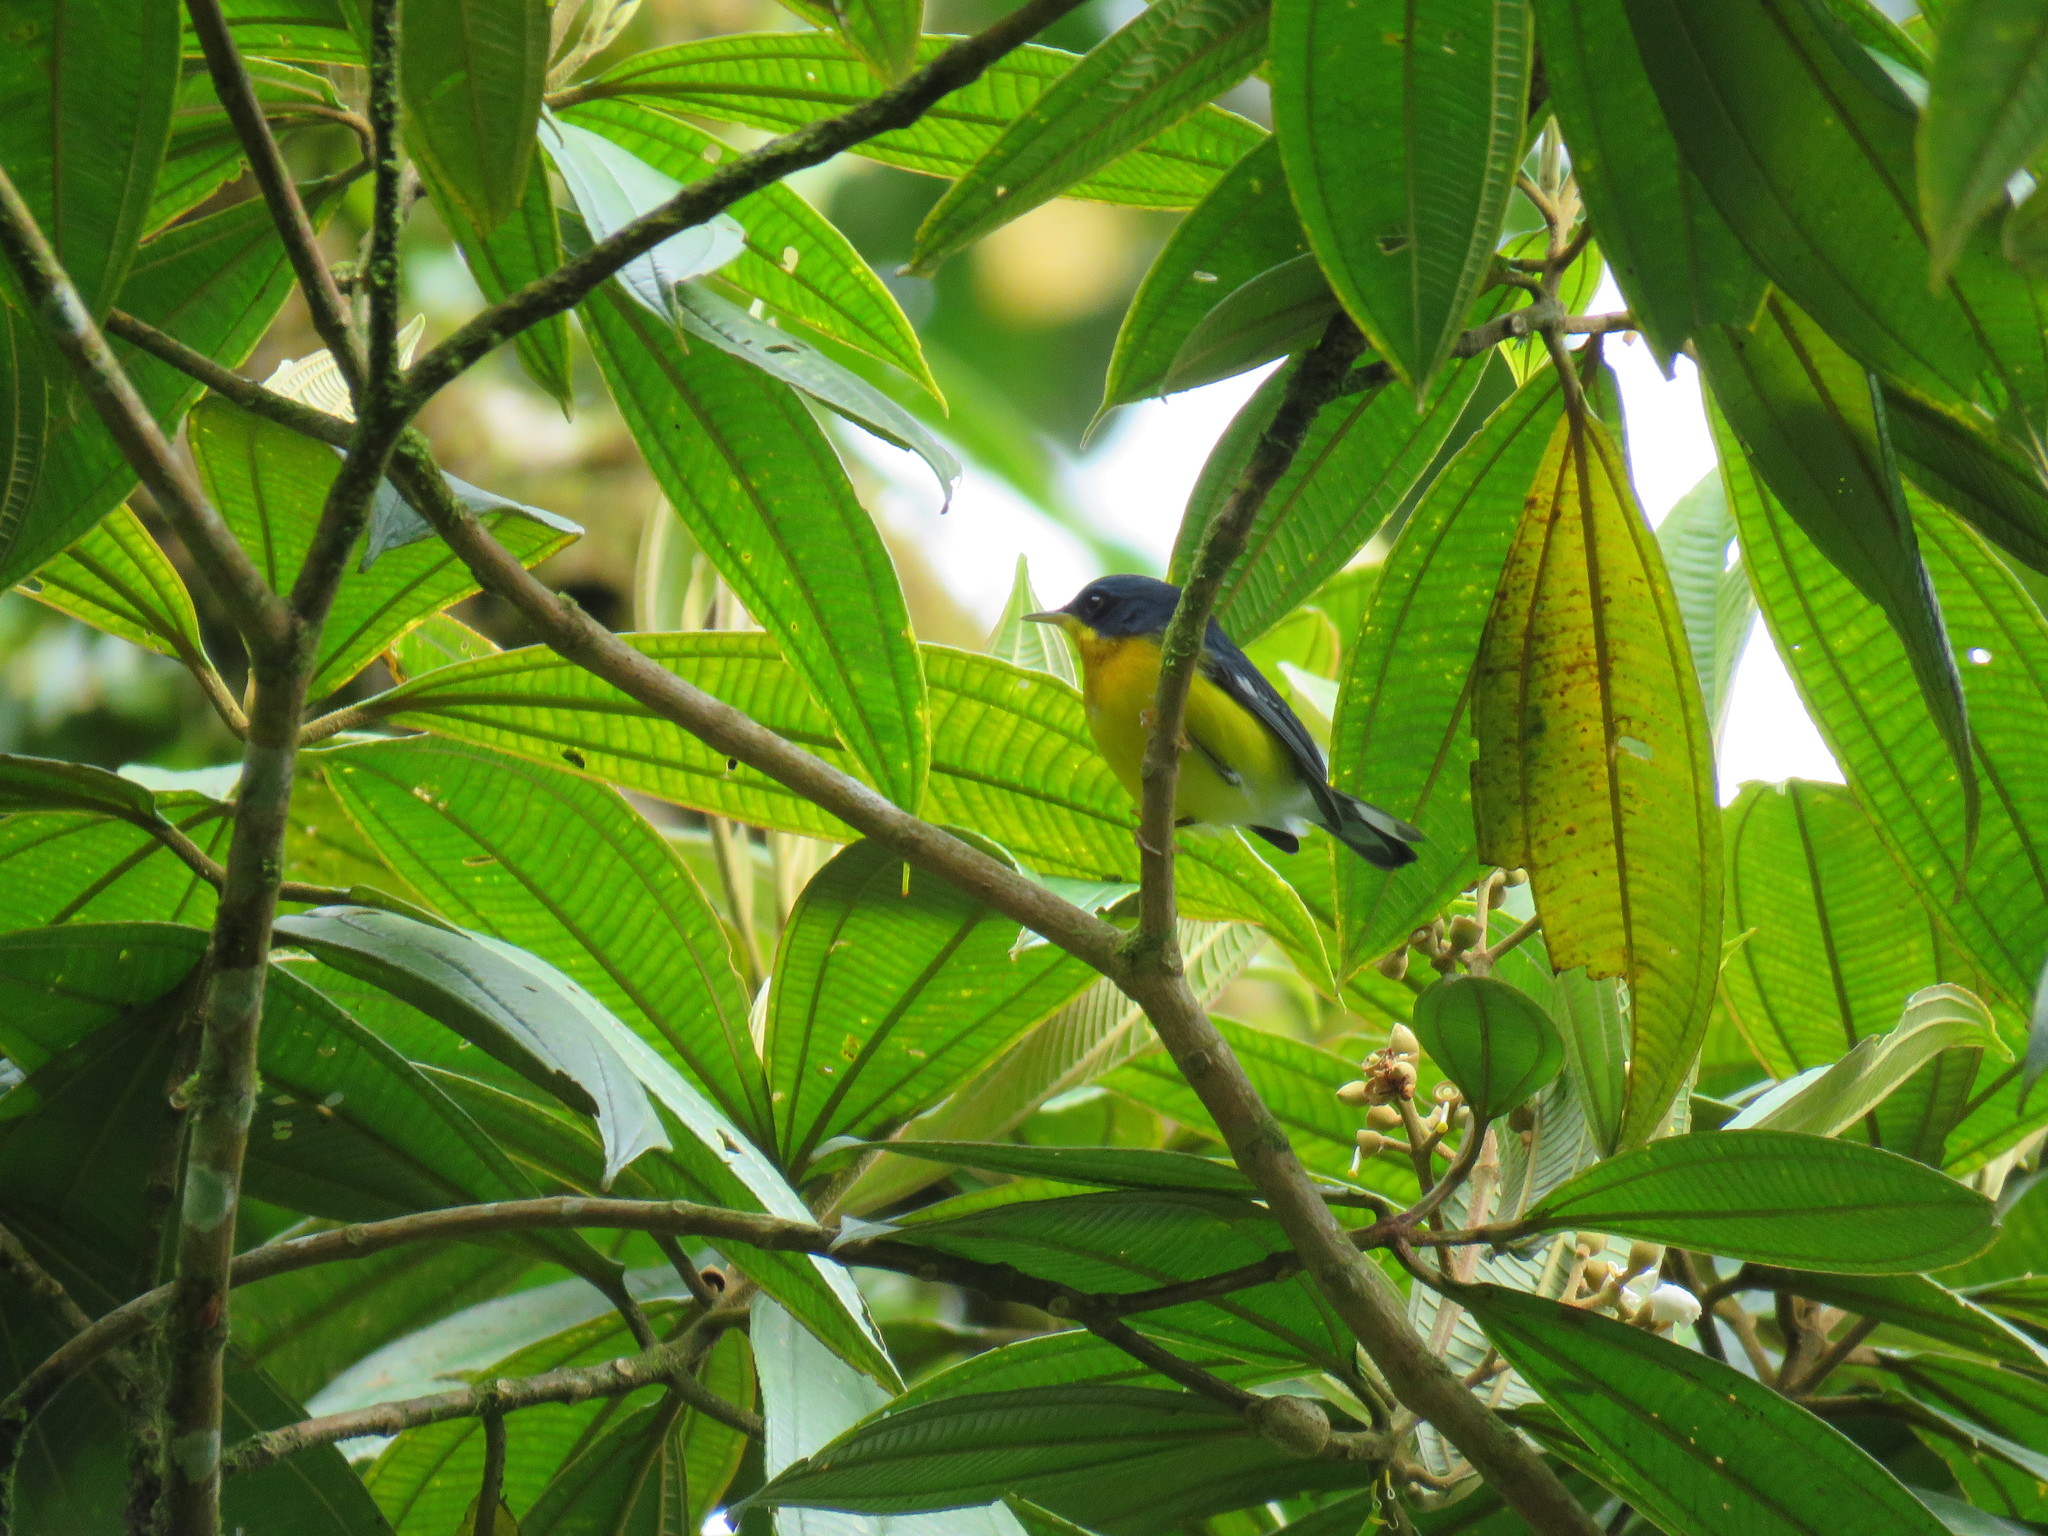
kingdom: Animalia
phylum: Chordata
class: Aves
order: Passeriformes
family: Parulidae
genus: Setophaga
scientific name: Setophaga pitiayumi
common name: Tropical parula
